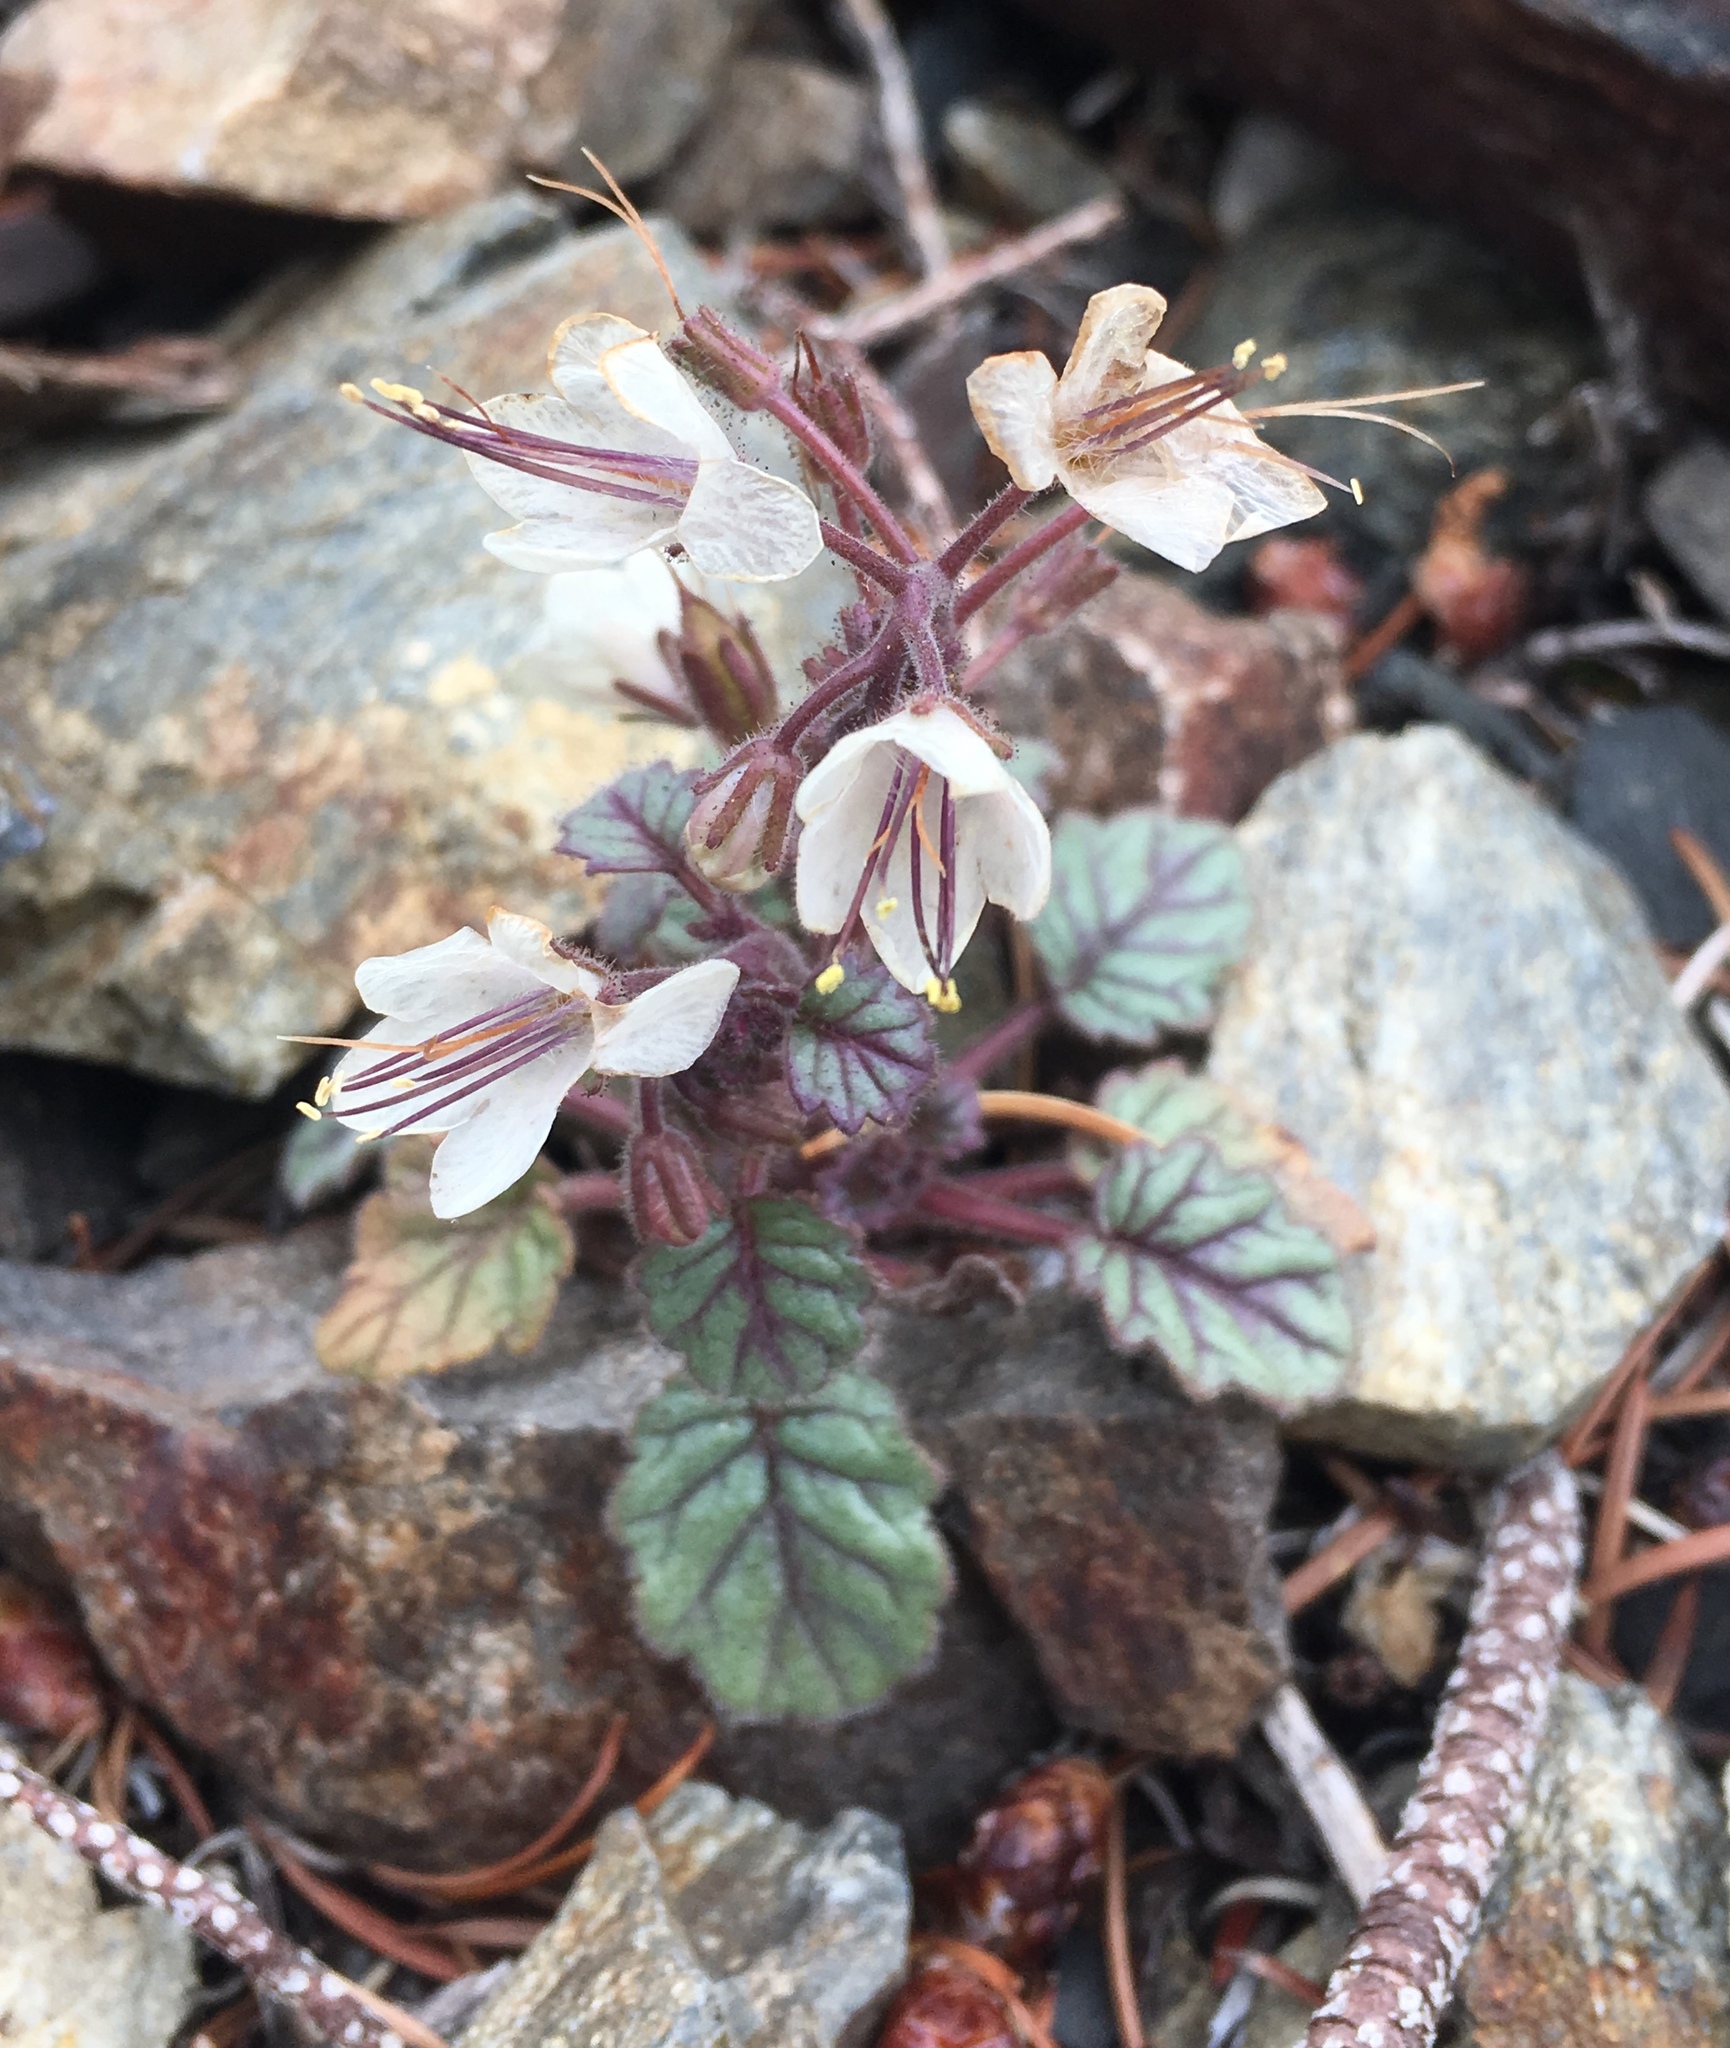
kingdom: Plantae
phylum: Tracheophyta
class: Magnoliopsida
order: Boraginales
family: Hydrophyllaceae
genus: Phacelia
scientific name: Phacelia longipes
